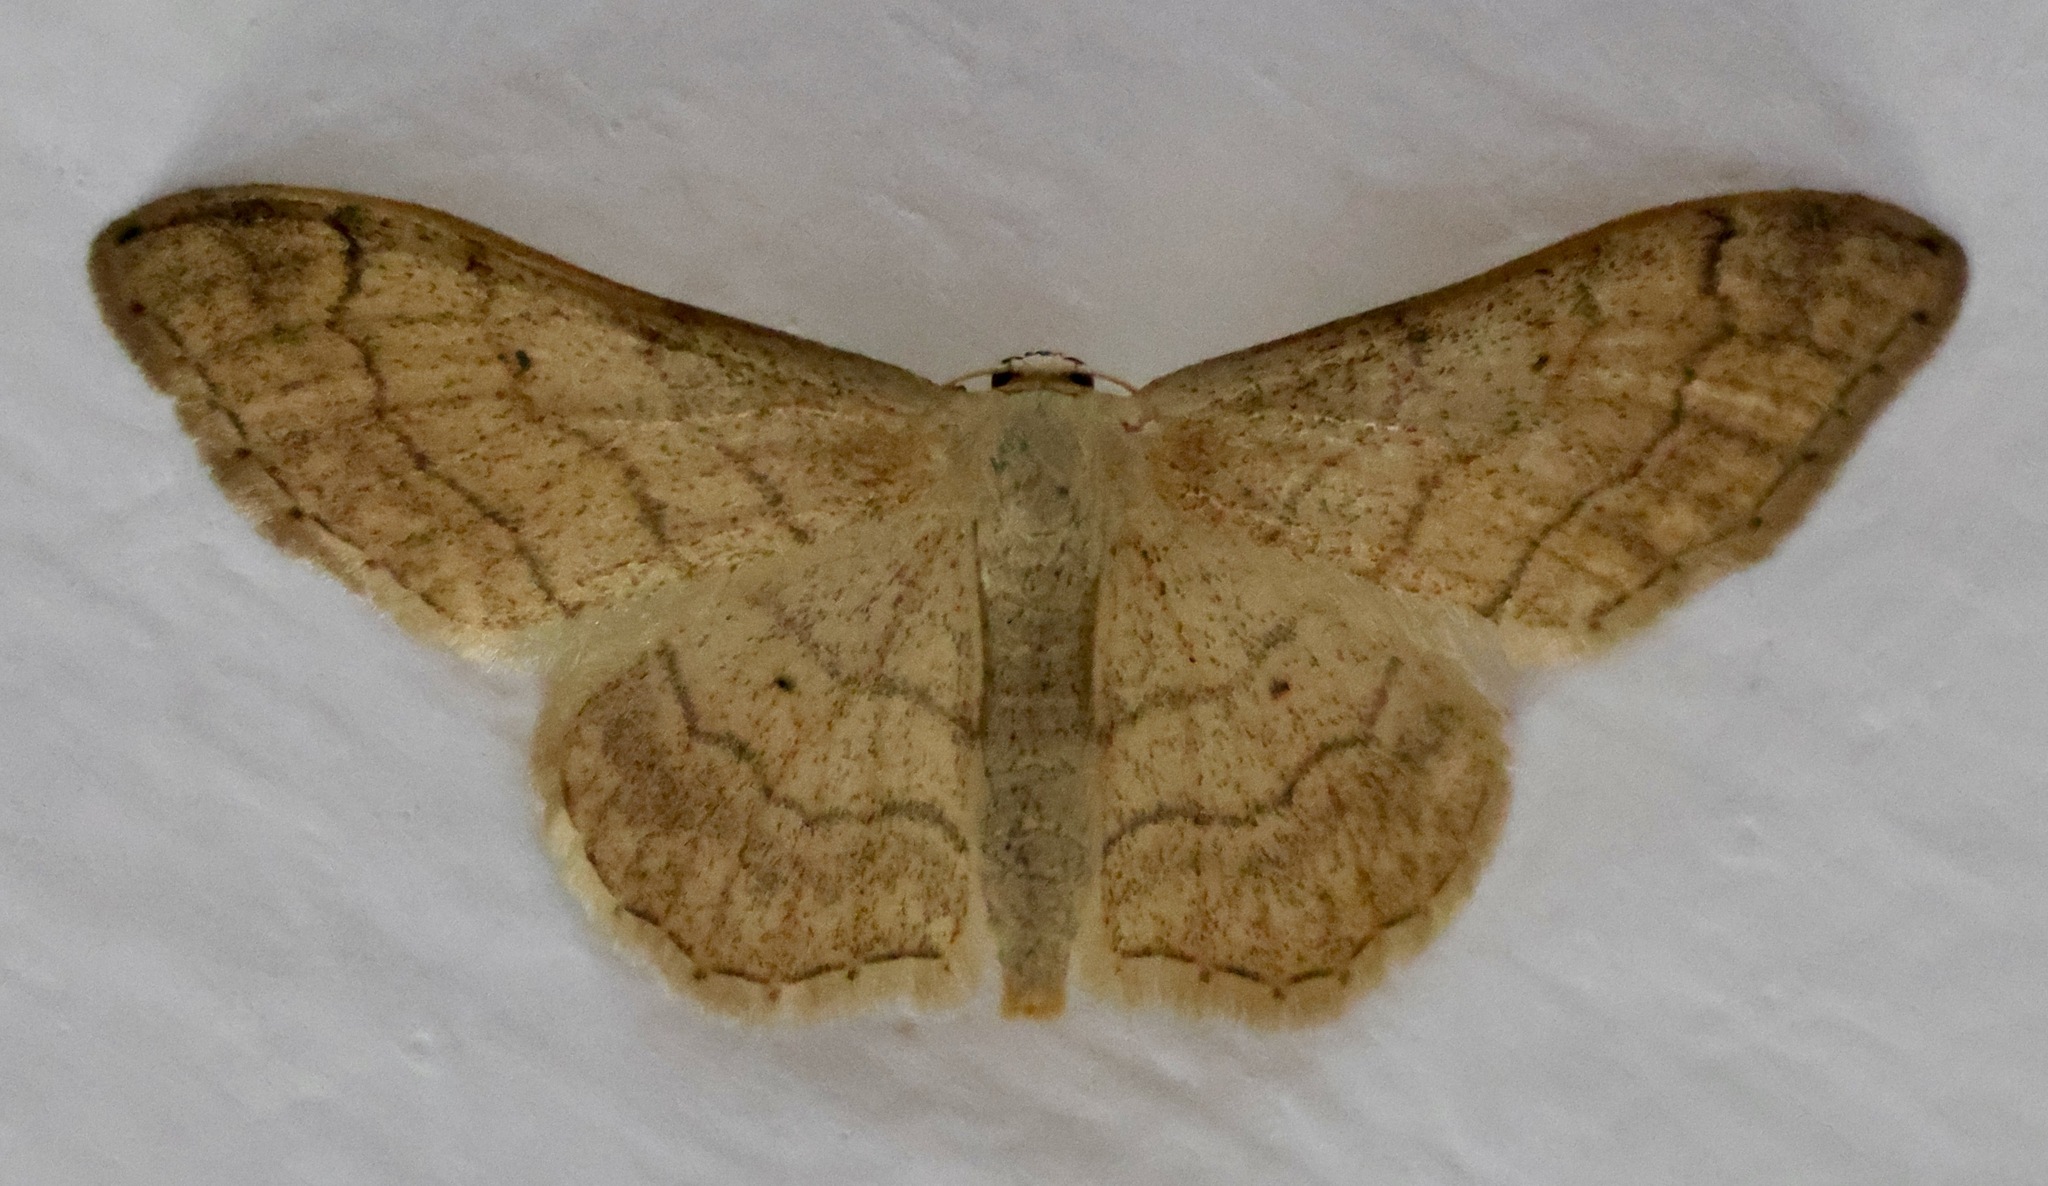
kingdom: Animalia
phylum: Arthropoda
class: Insecta
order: Lepidoptera
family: Geometridae
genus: Idaea
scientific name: Idaea aversata
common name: Riband wave
